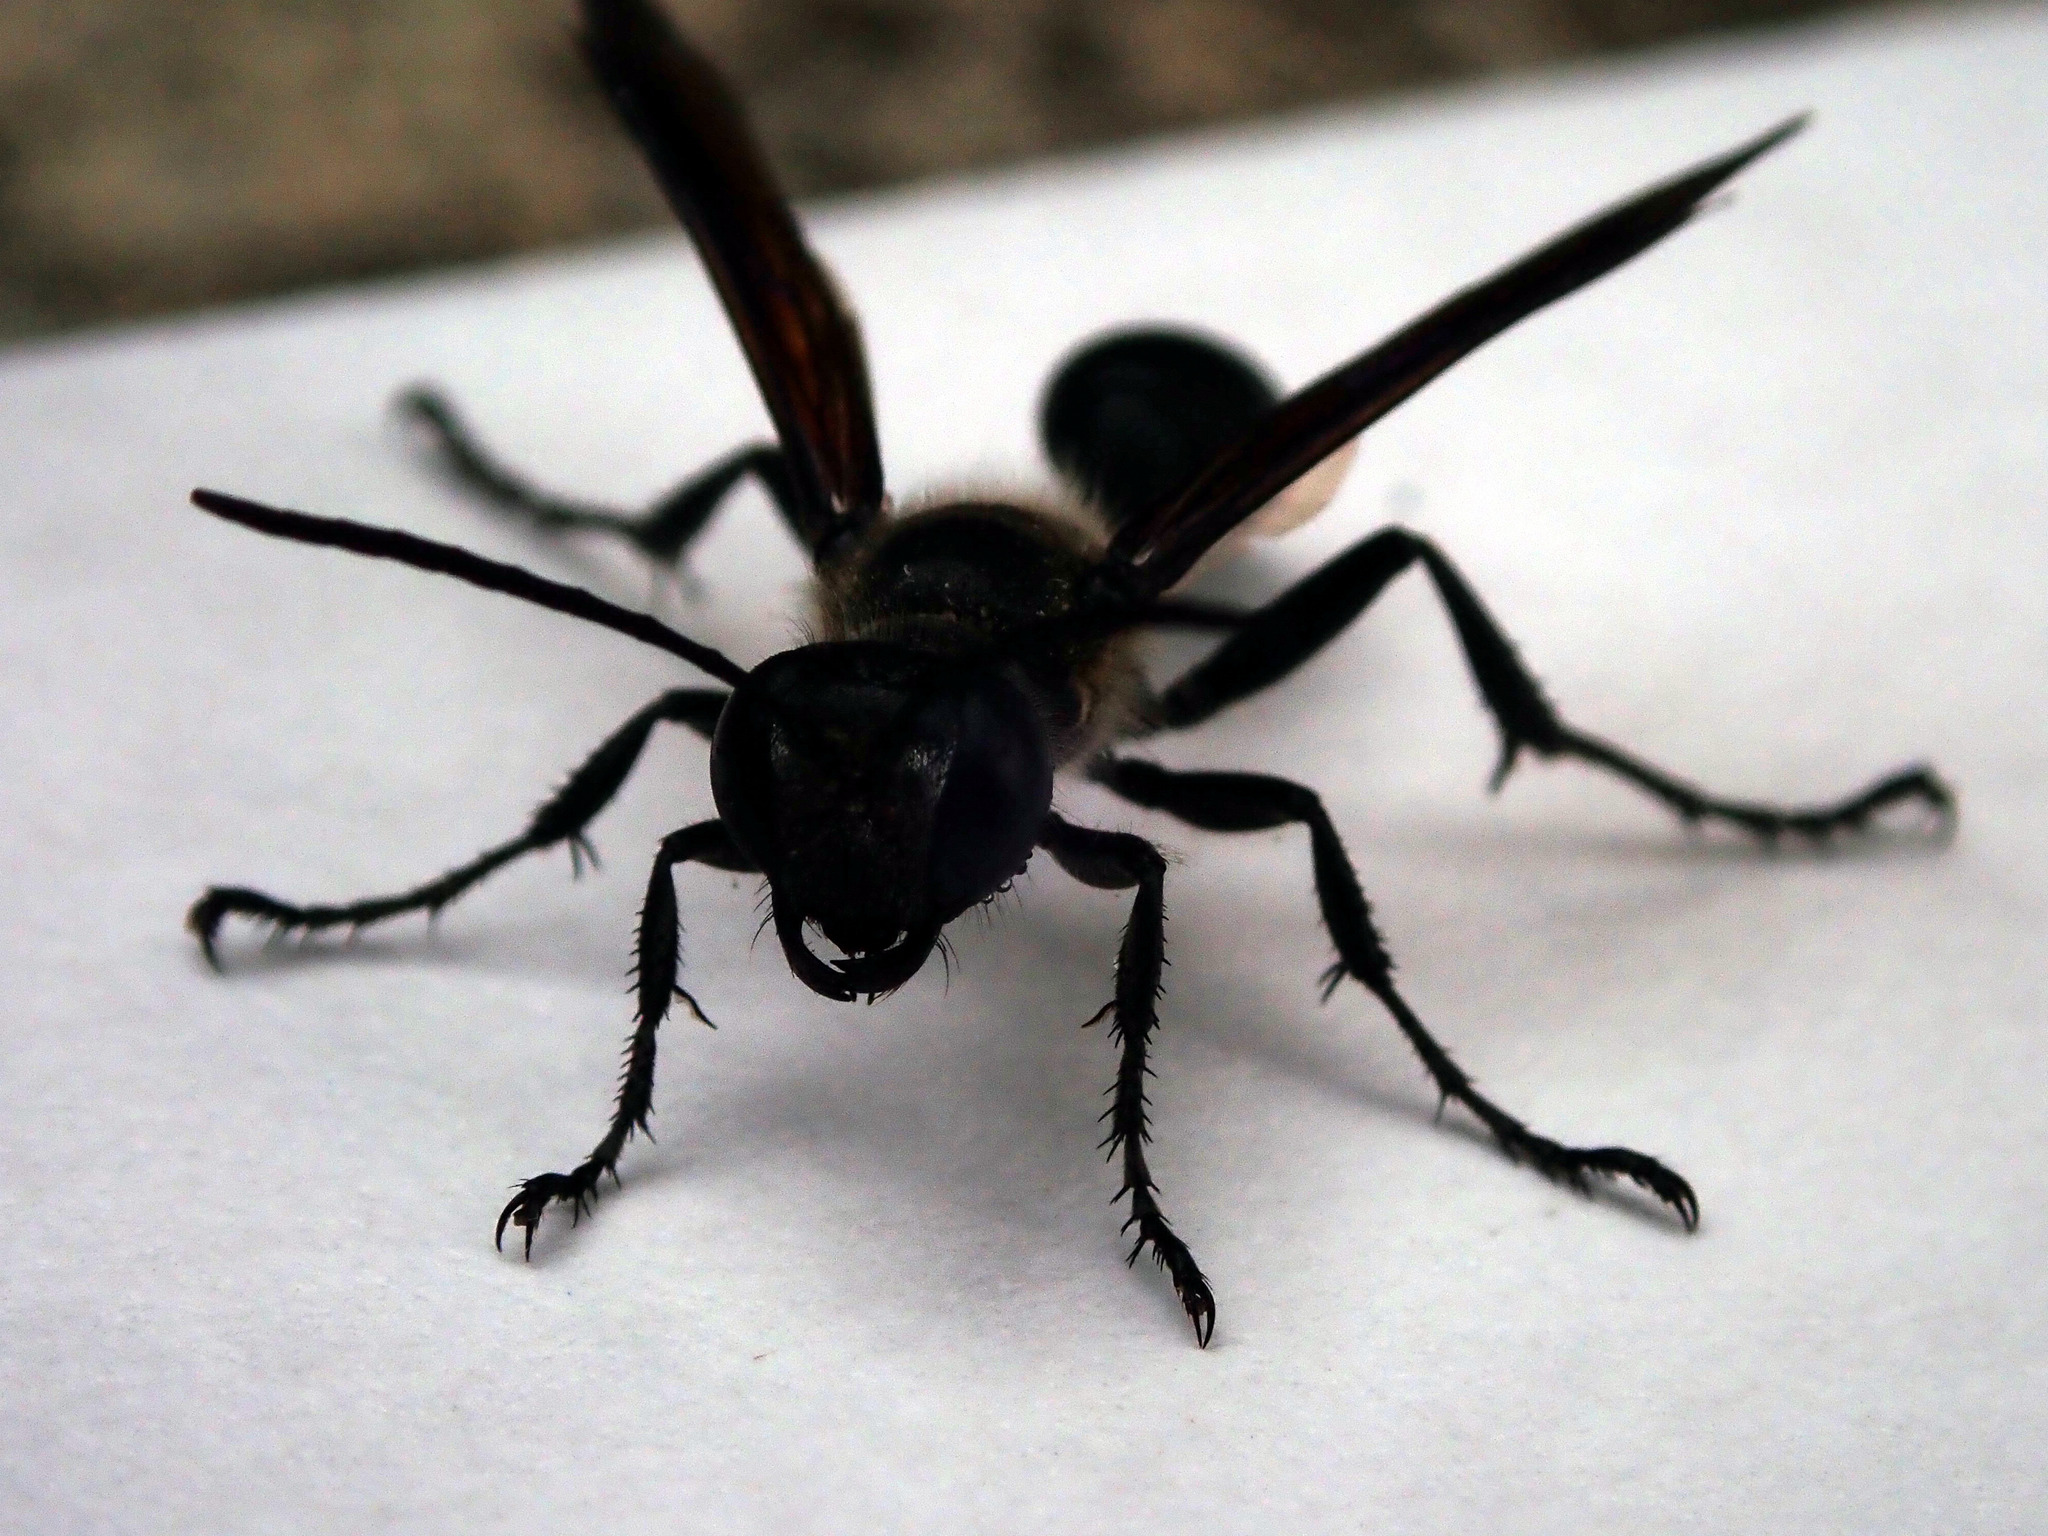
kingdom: Animalia
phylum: Arthropoda
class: Insecta
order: Hymenoptera
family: Sphecidae
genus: Isodontia
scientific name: Isodontia
